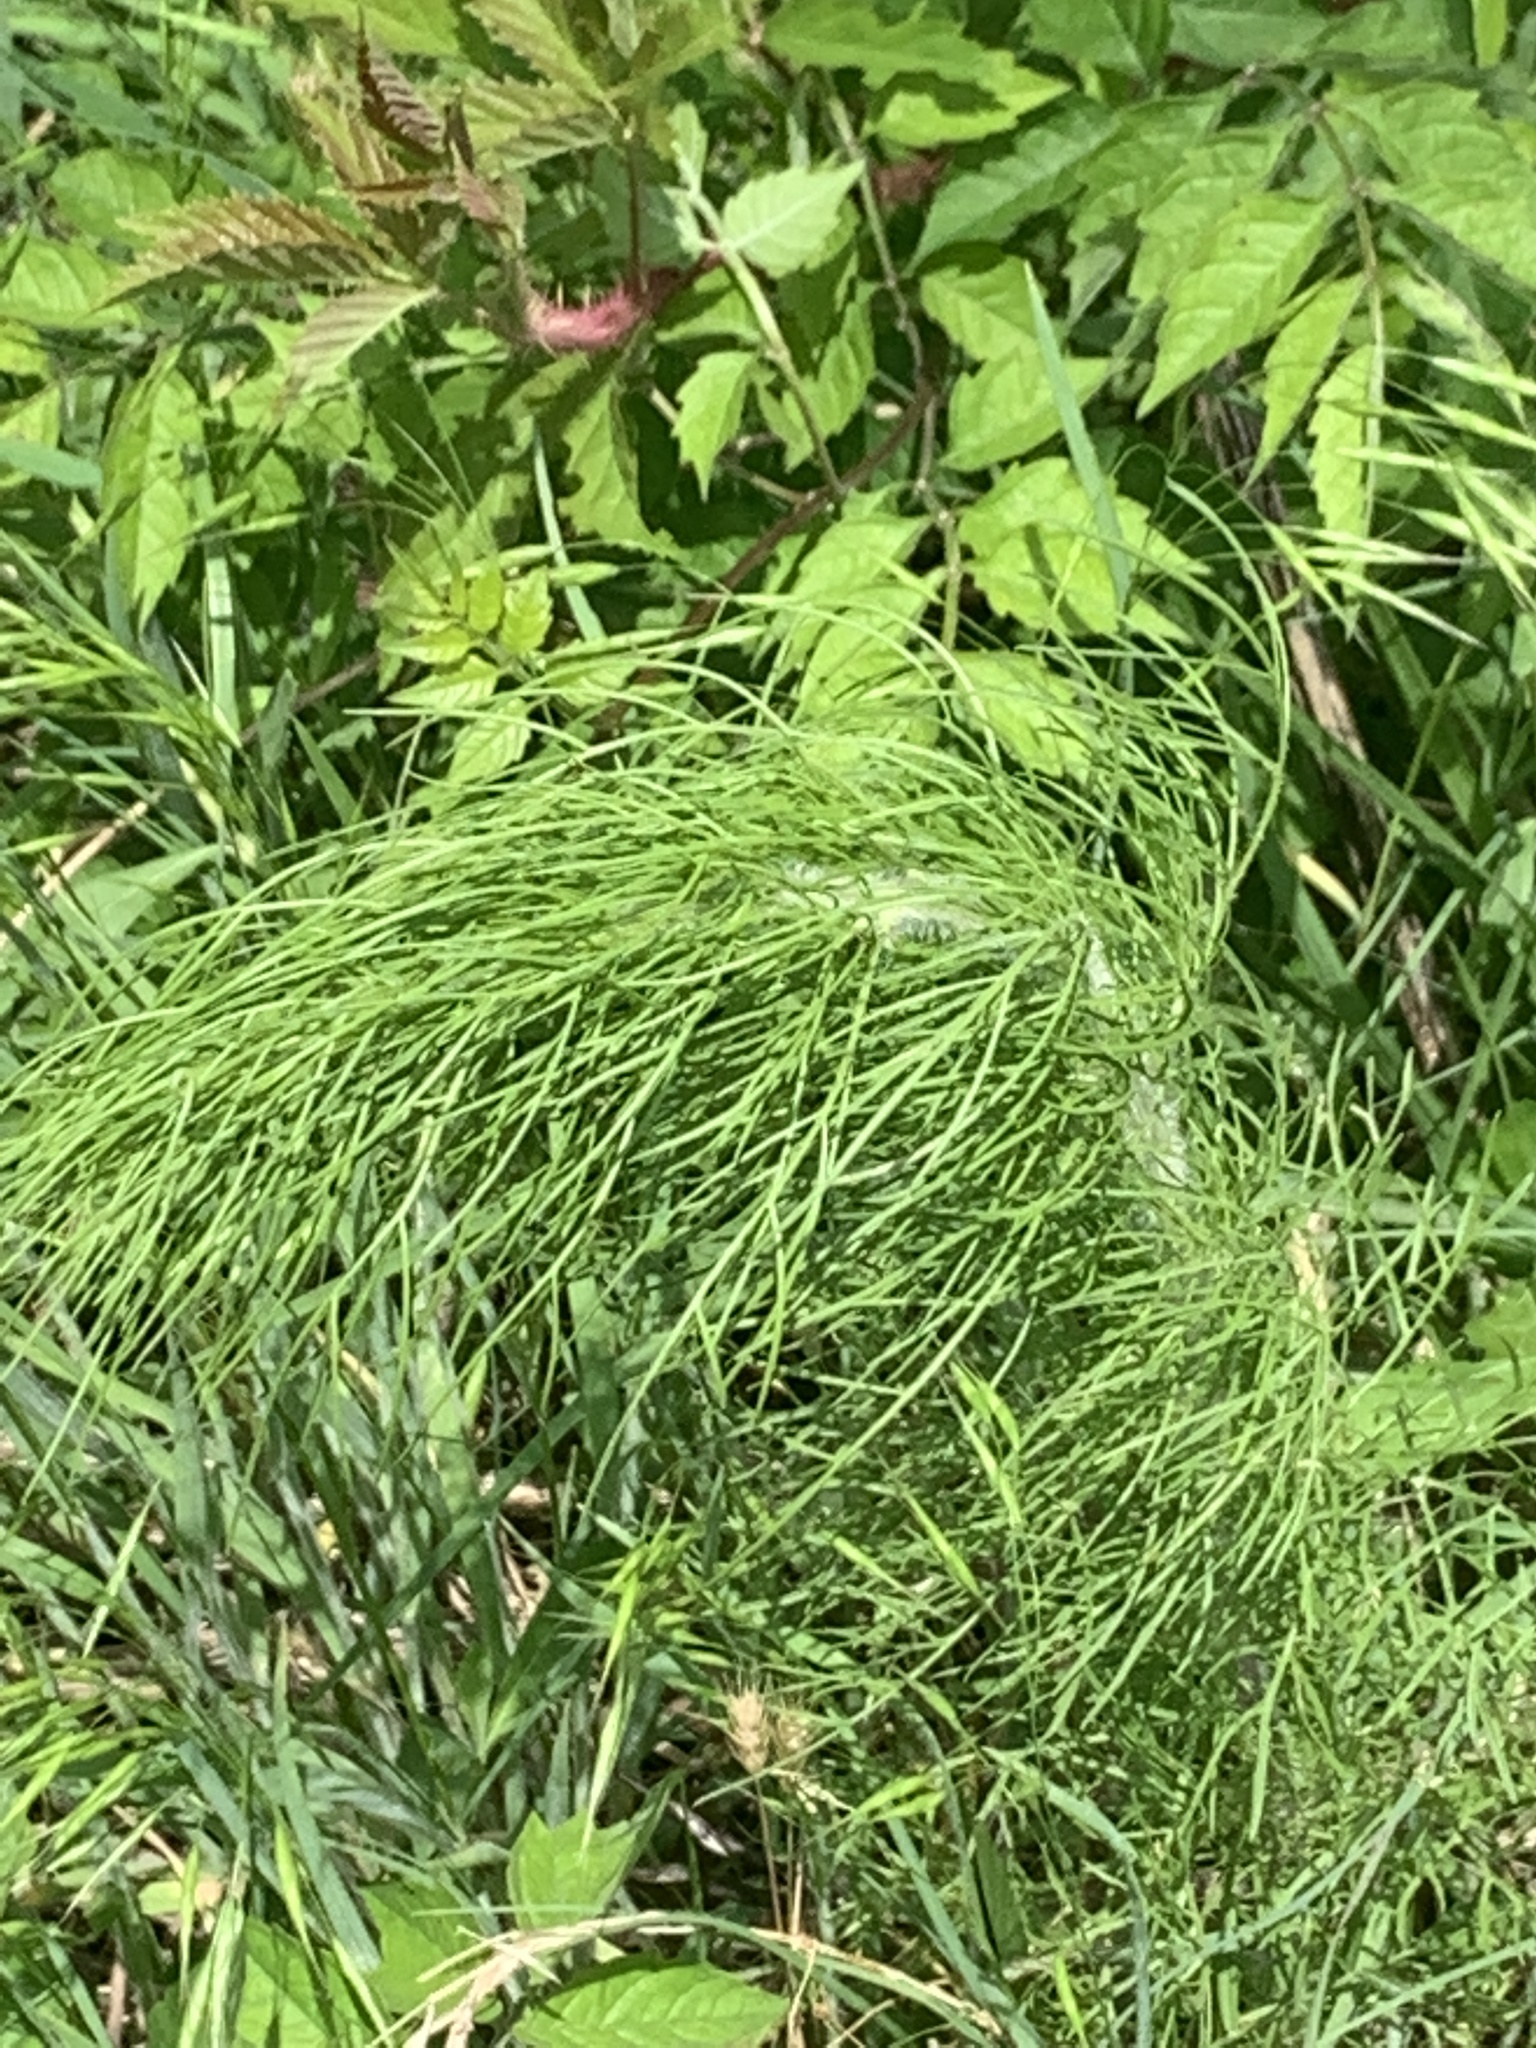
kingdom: Plantae
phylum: Tracheophyta
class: Magnoliopsida
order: Asterales
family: Asteraceae
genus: Eupatorium
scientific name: Eupatorium capillifolium
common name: Dog-fennel
